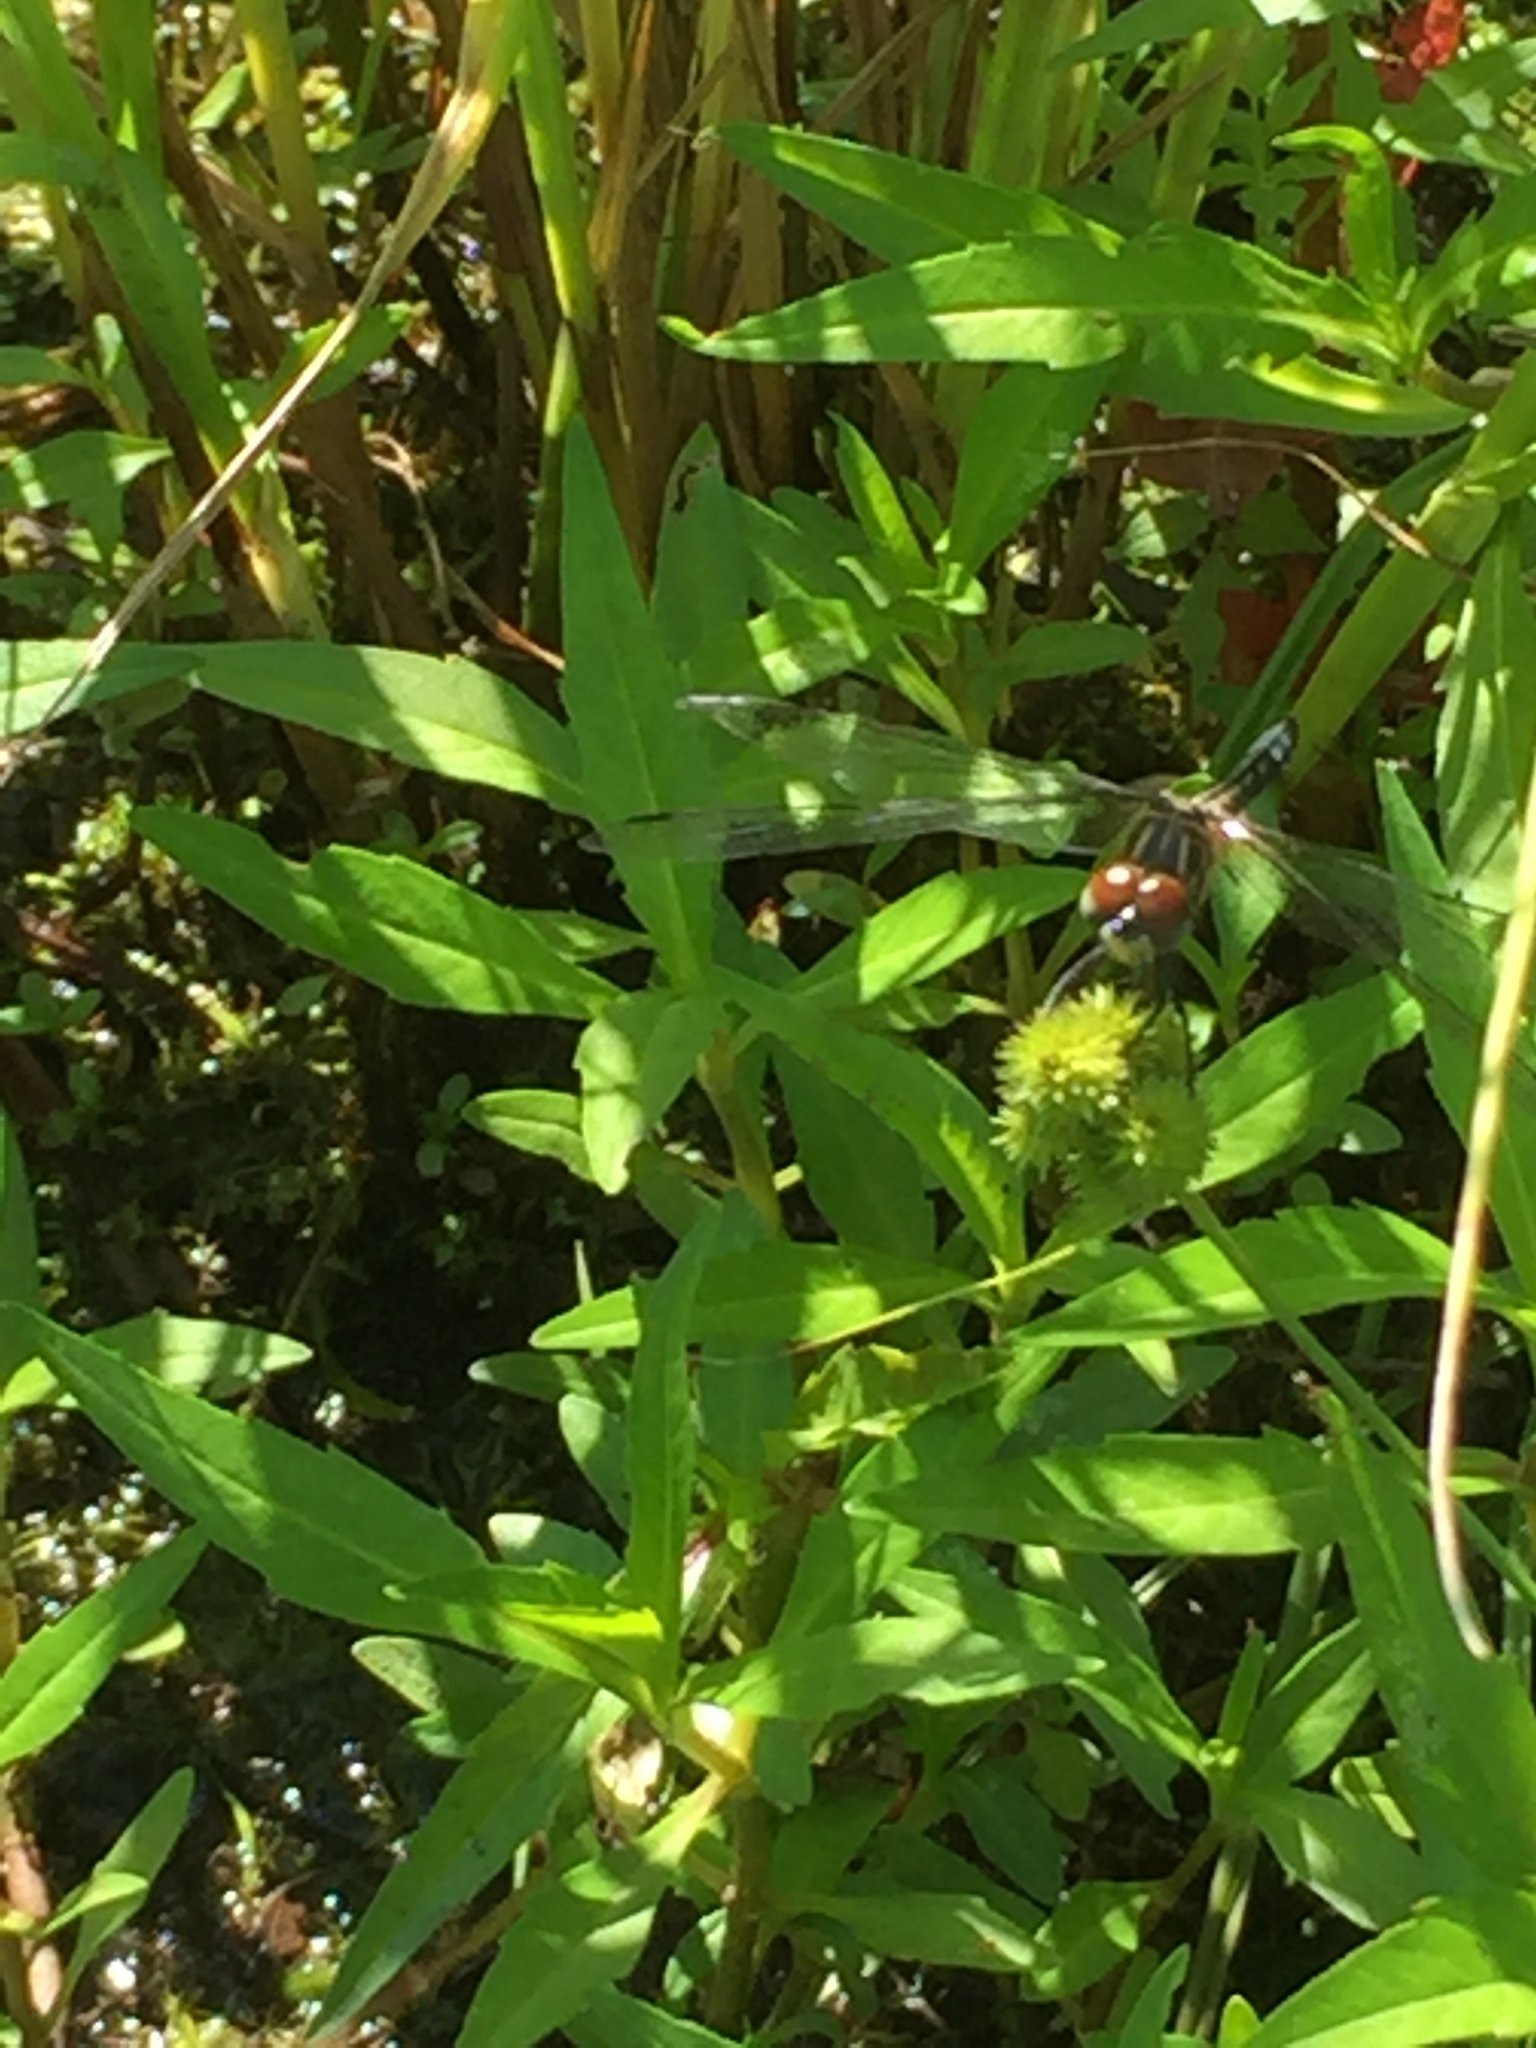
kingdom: Animalia
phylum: Arthropoda
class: Insecta
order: Odonata
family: Libellulidae
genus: Pachydiplax
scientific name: Pachydiplax longipennis
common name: Blue dasher
